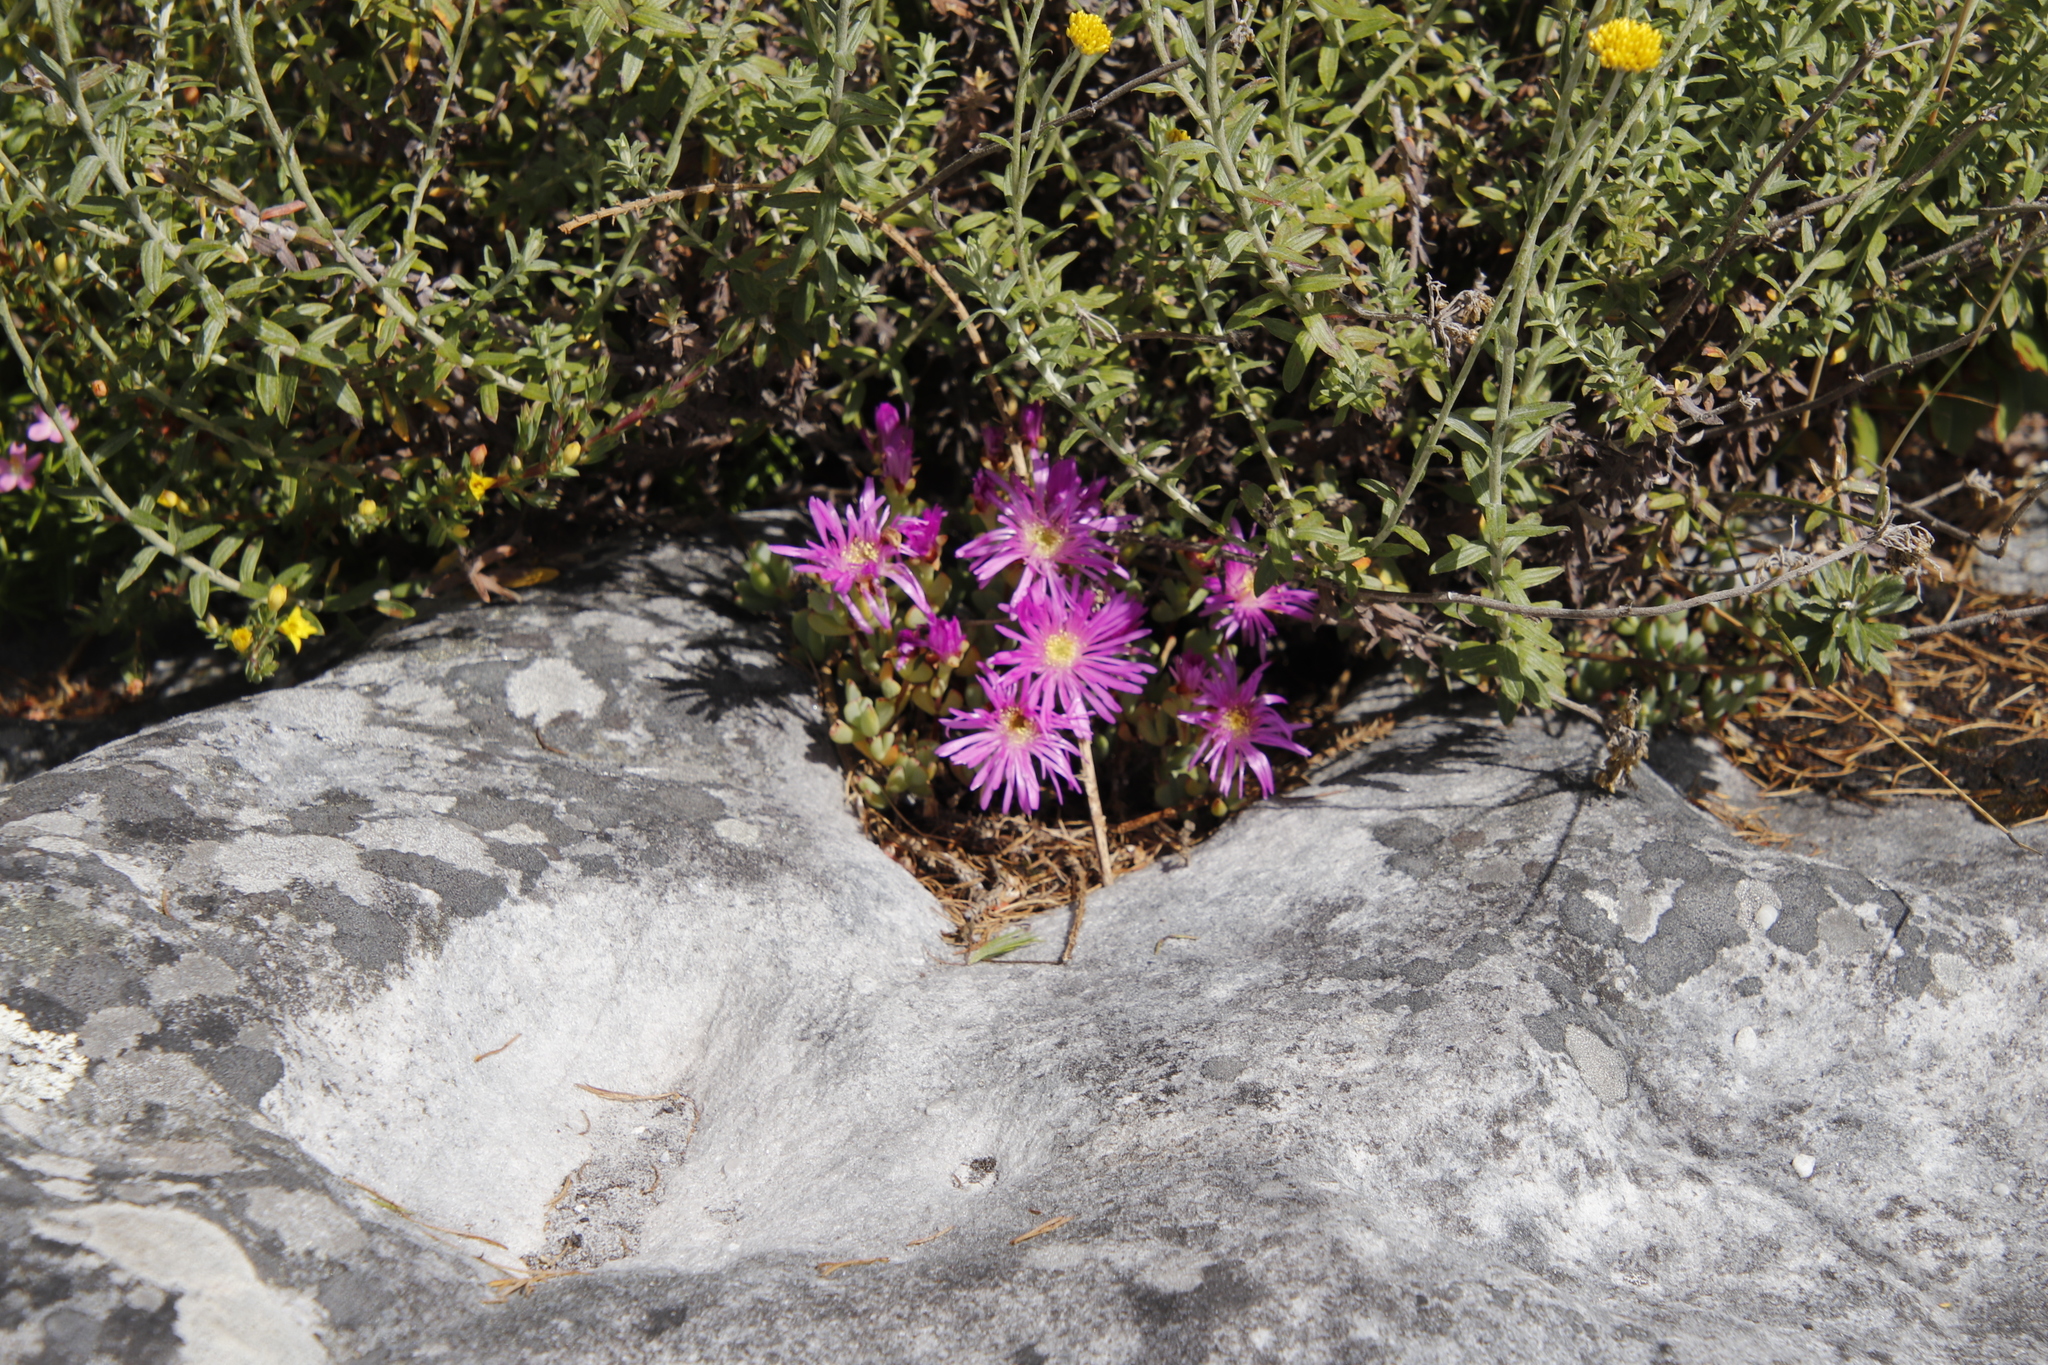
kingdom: Plantae
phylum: Tracheophyta
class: Magnoliopsida
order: Caryophyllales
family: Aizoaceae
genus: Oscularia
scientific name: Oscularia falciformis
